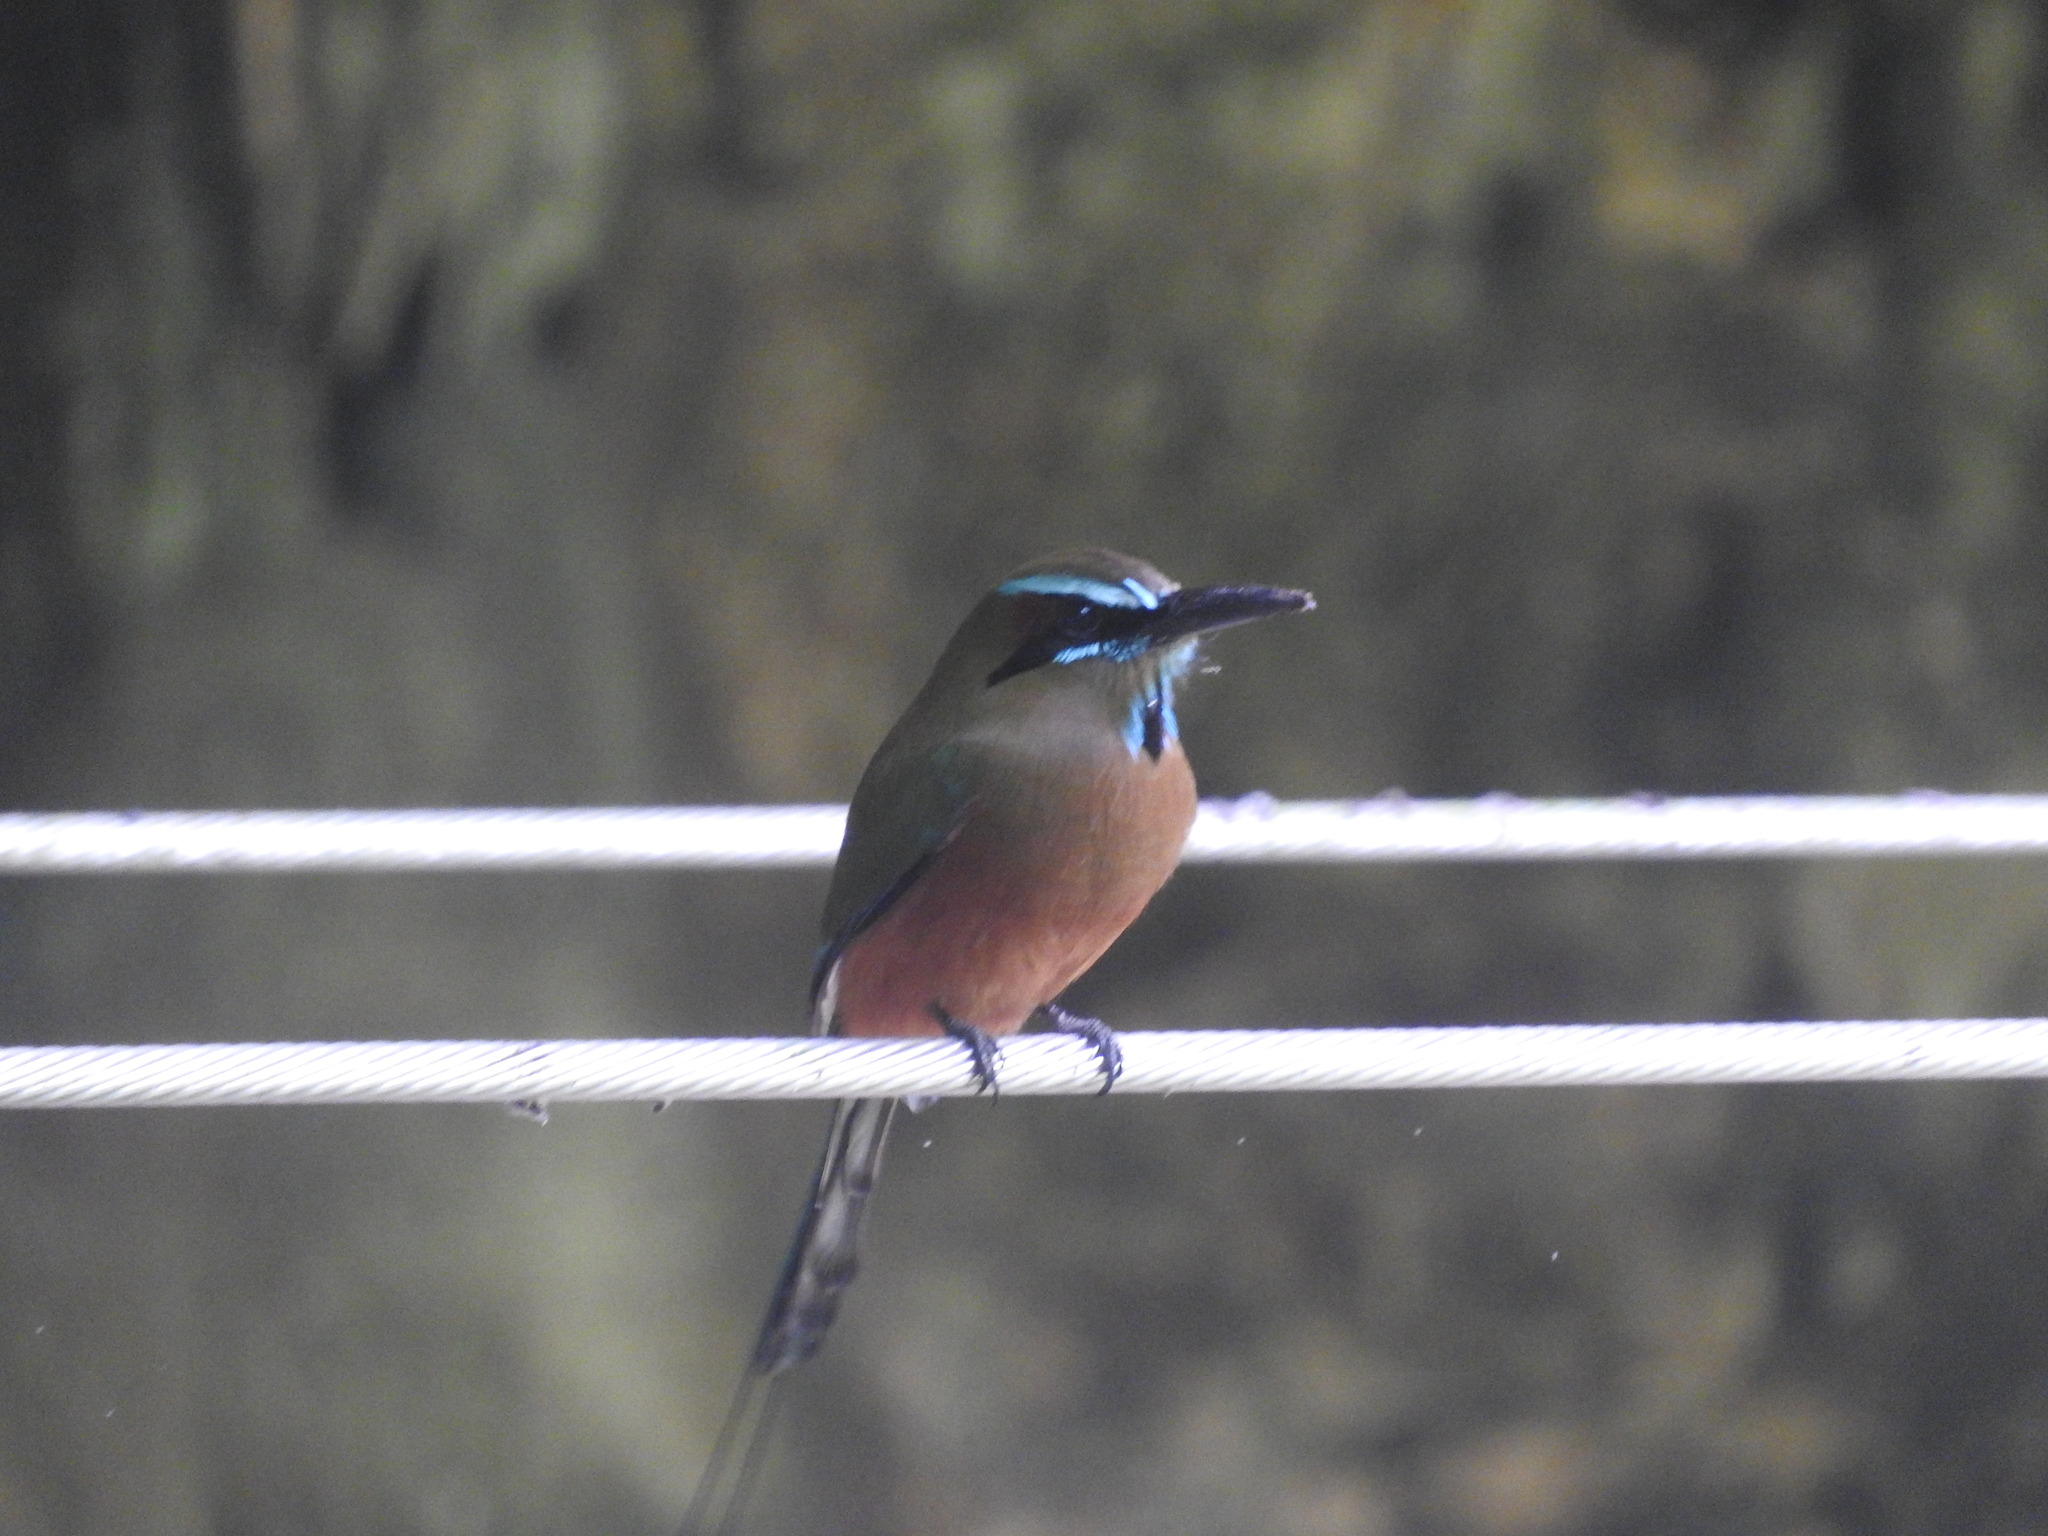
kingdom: Animalia
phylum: Chordata
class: Aves
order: Coraciiformes
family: Momotidae
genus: Eumomota
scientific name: Eumomota superciliosa
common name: Turquoise-browed motmot
